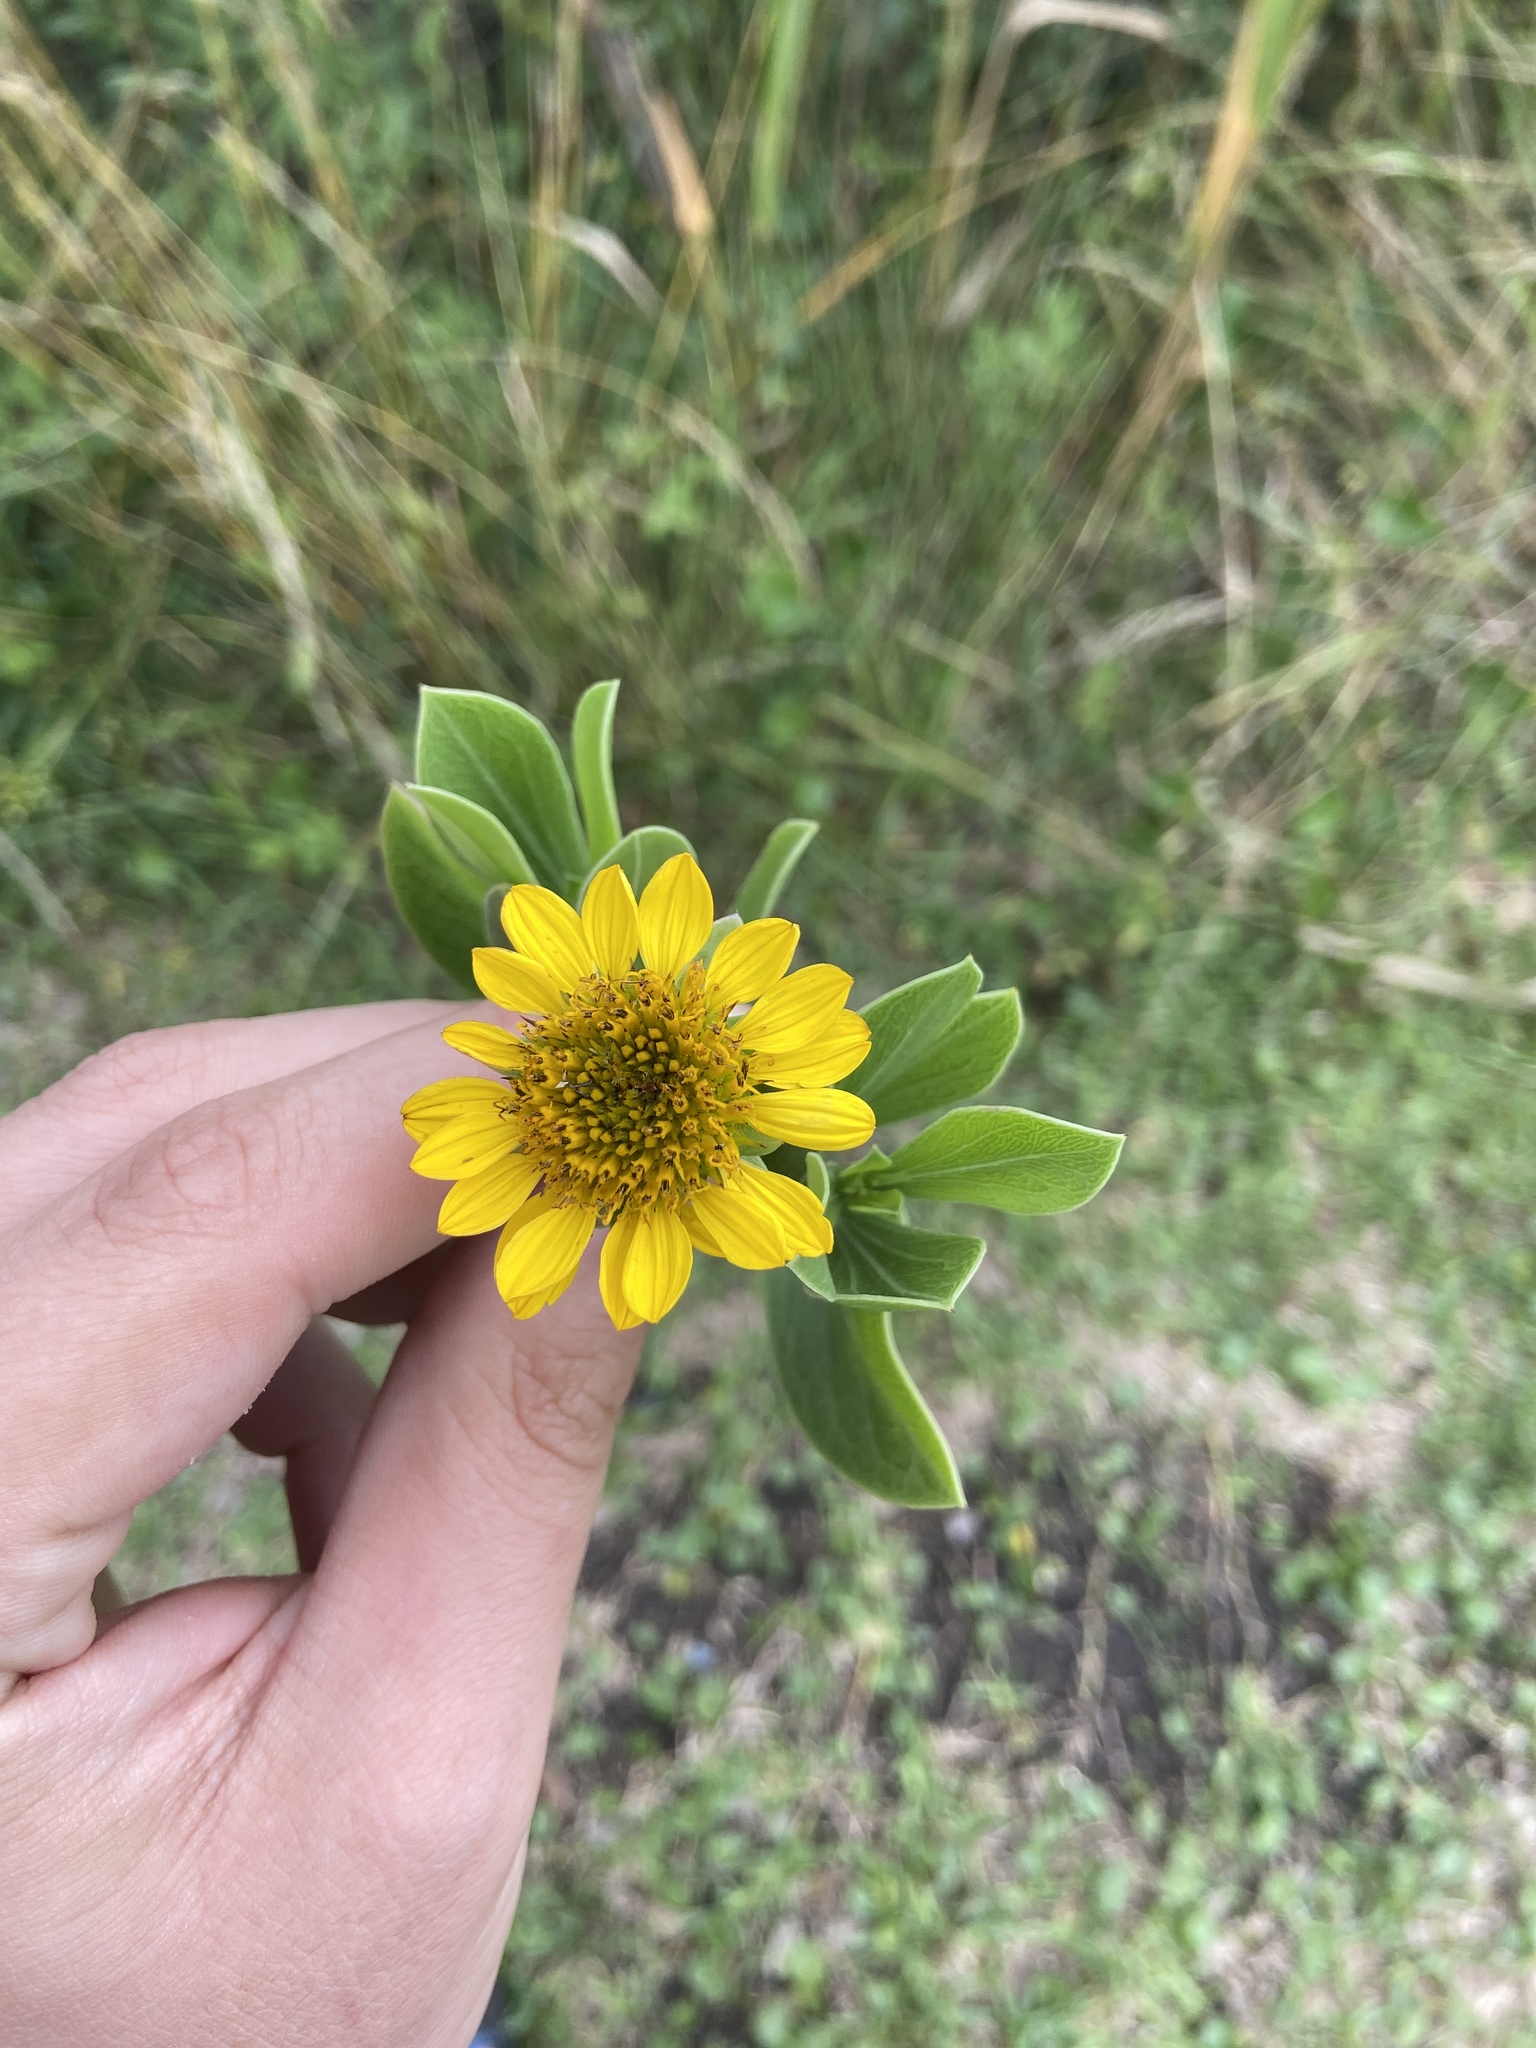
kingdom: Plantae
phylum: Tracheophyta
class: Magnoliopsida
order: Asterales
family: Asteraceae
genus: Borrichia
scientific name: Borrichia frutescens
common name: Sea oxeye
